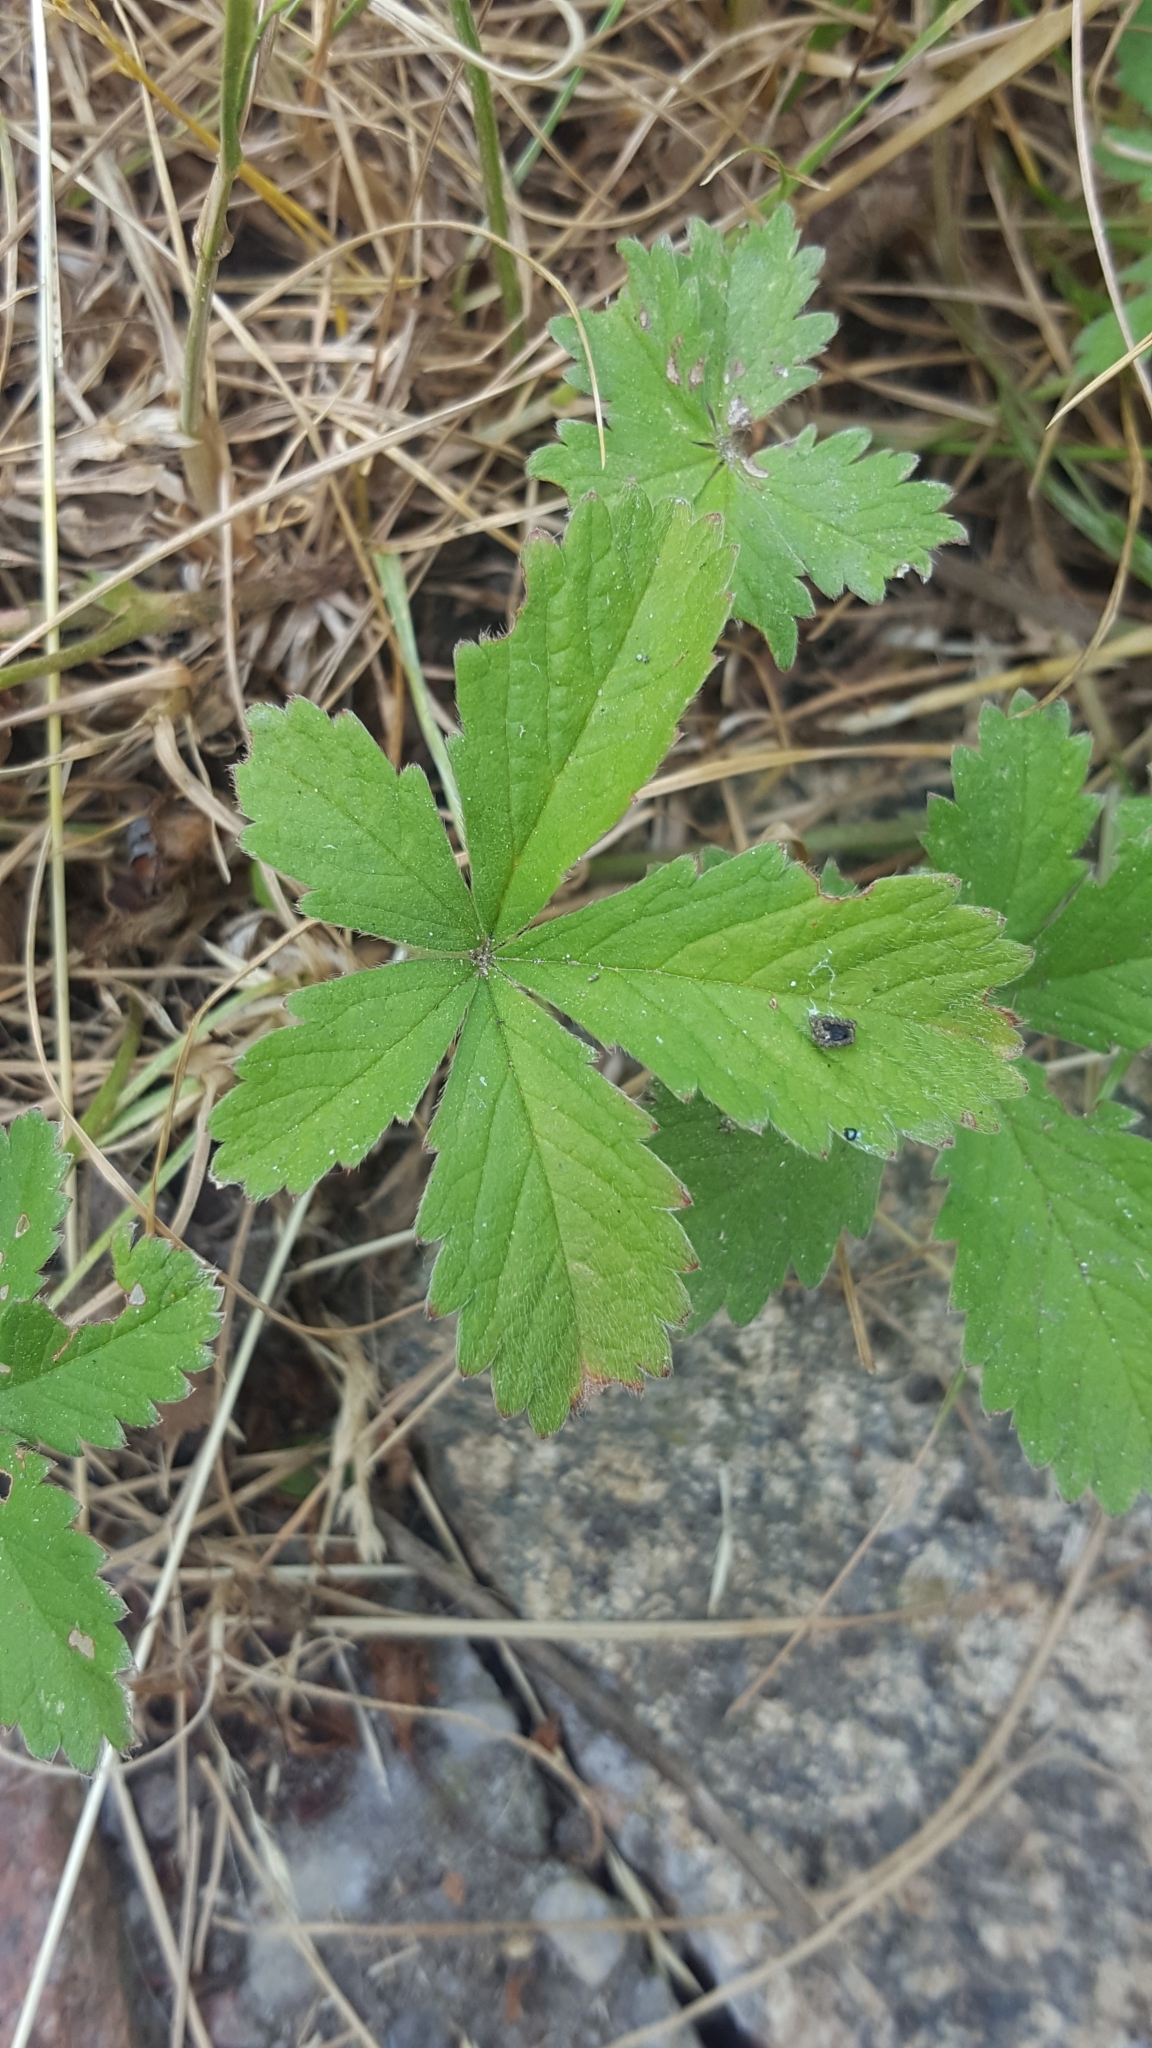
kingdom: Plantae
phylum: Tracheophyta
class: Magnoliopsida
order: Rosales
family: Rosaceae
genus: Potentilla
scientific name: Potentilla reptans
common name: Creeping cinquefoil
